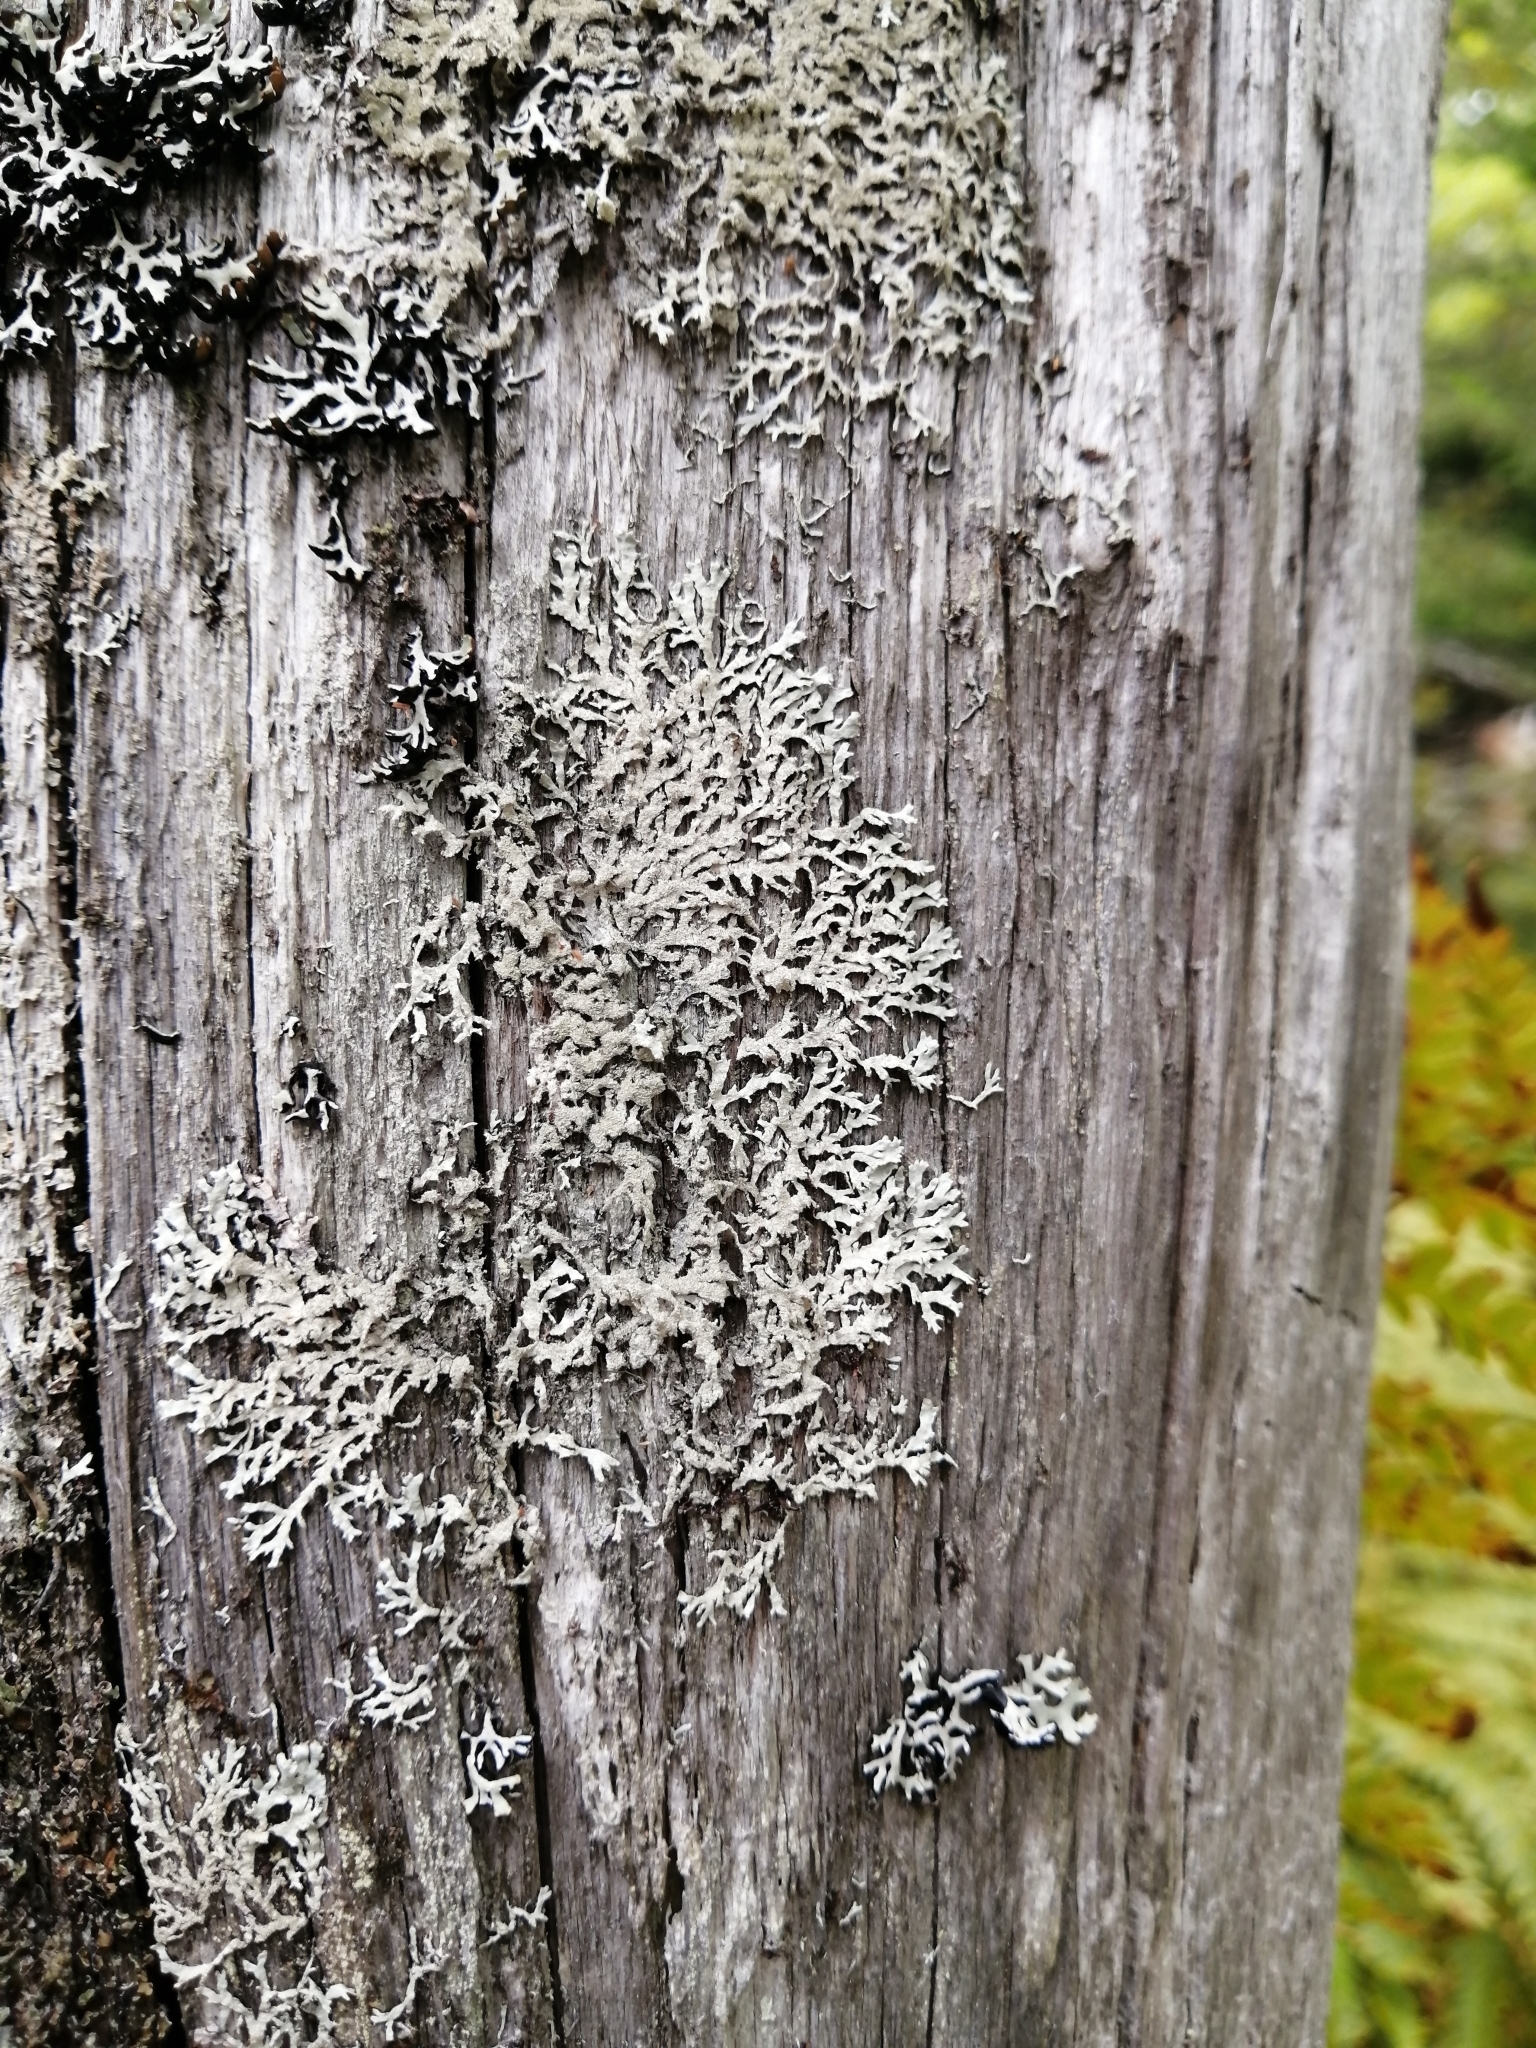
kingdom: Fungi
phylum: Ascomycota
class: Lecanoromycetes
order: Lecanorales
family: Parmeliaceae
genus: Imshaugia
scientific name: Imshaugia aleurites
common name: Salted starburst lichen
